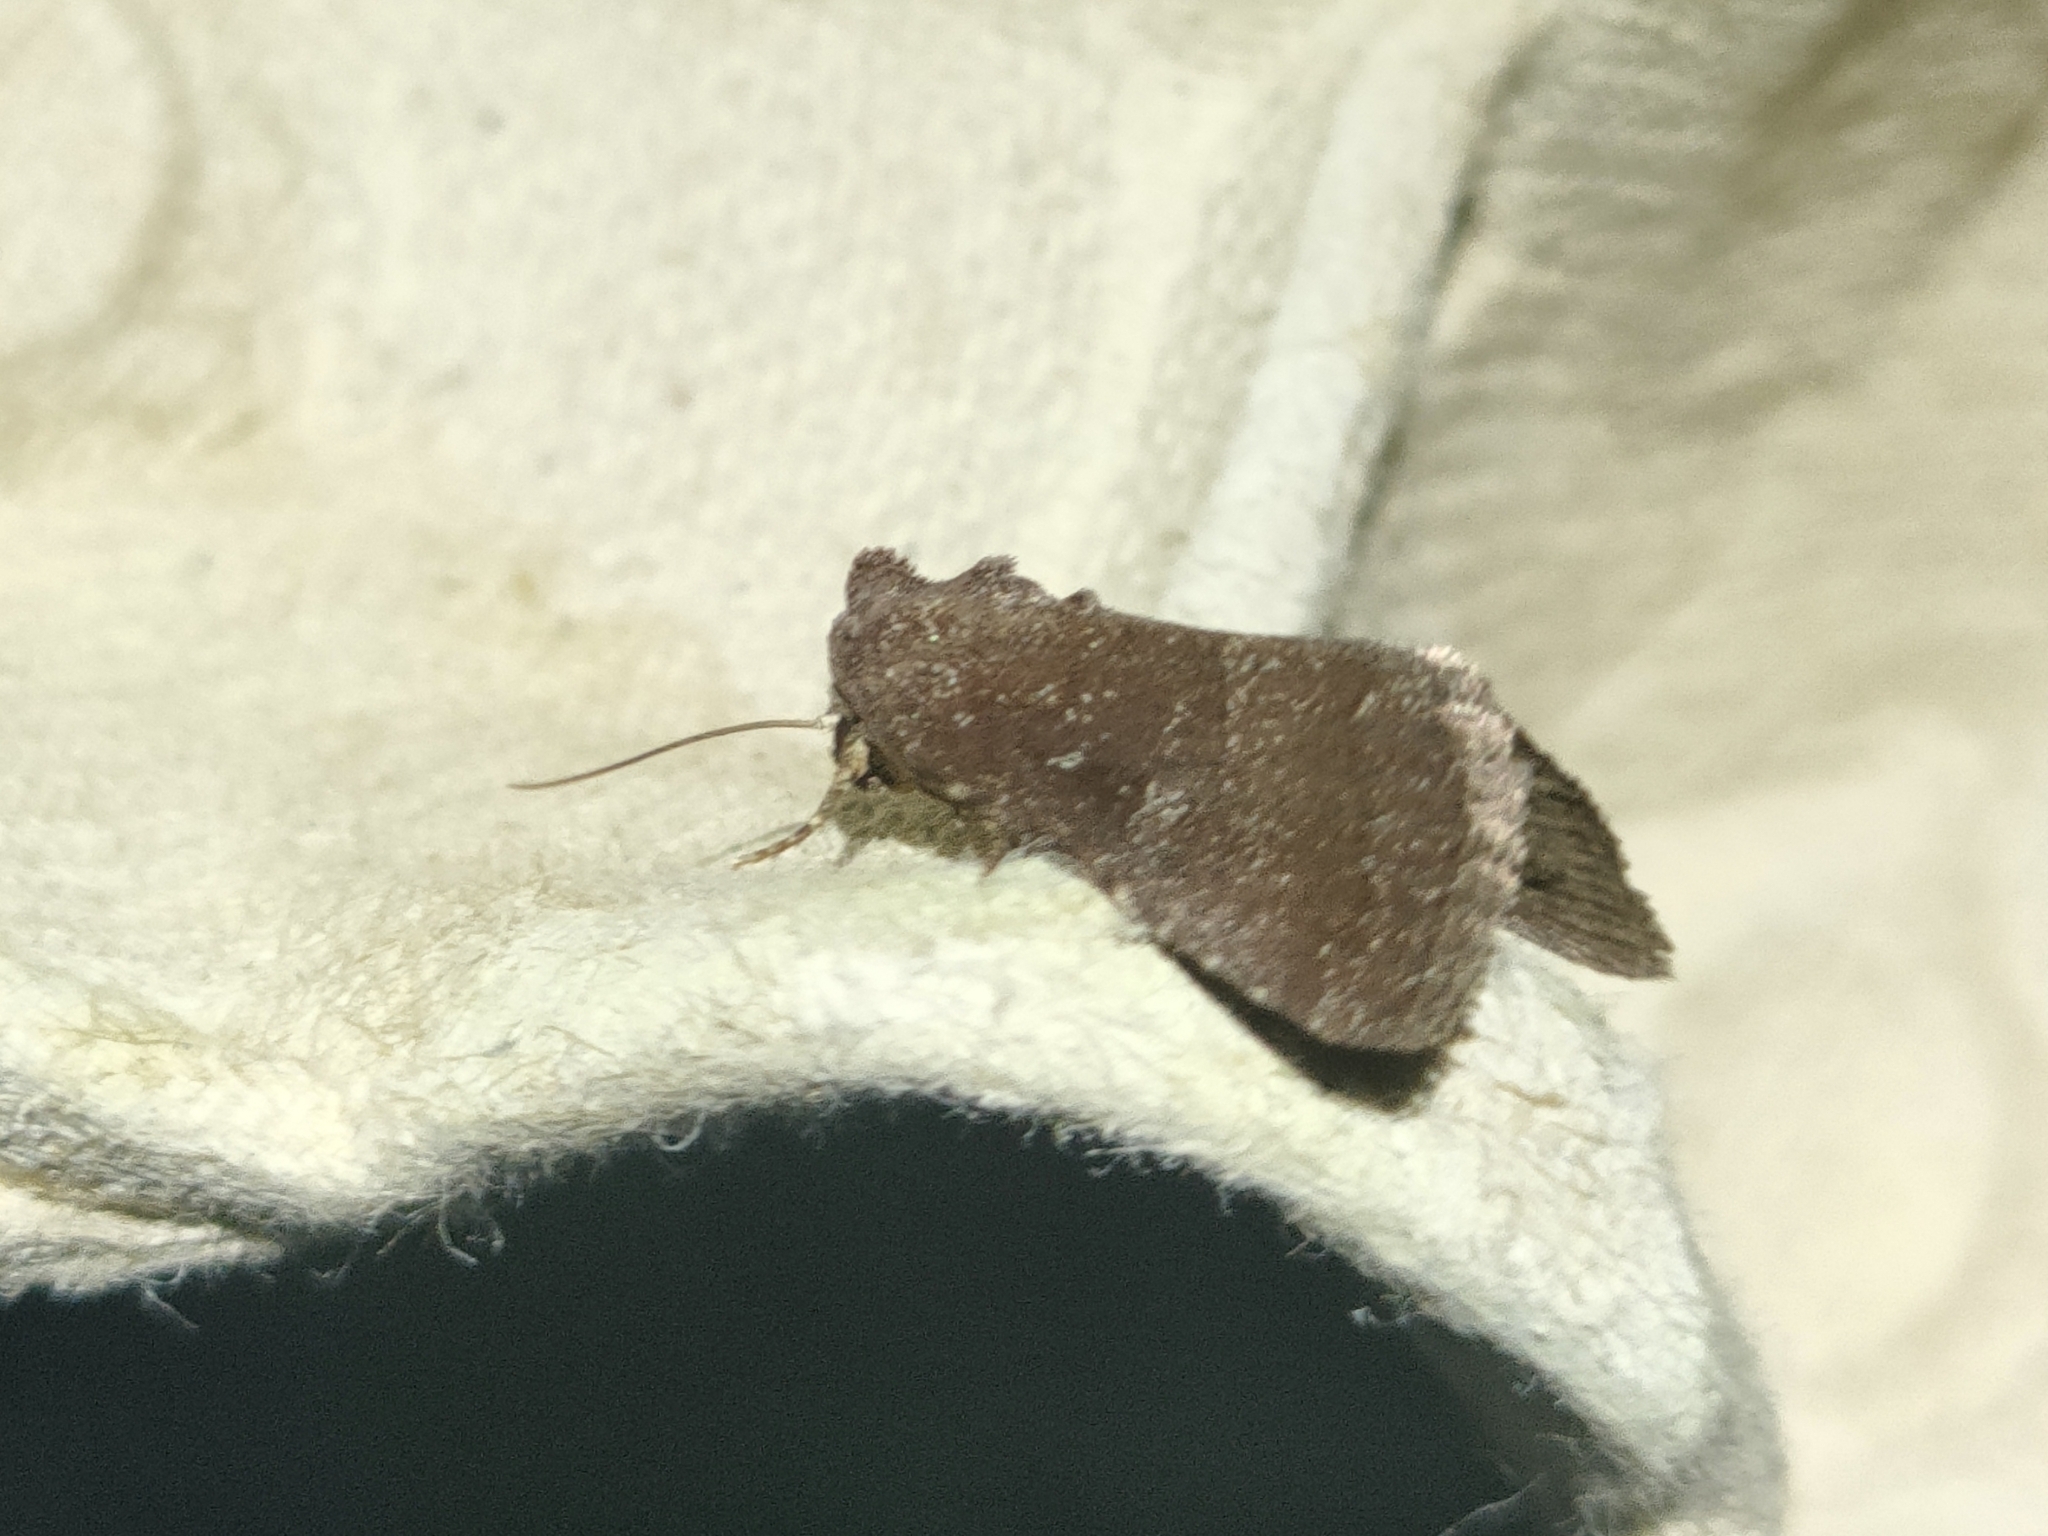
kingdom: Animalia
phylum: Arthropoda
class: Insecta
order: Lepidoptera
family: Noctuidae
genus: Condica
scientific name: Condica viscosa
